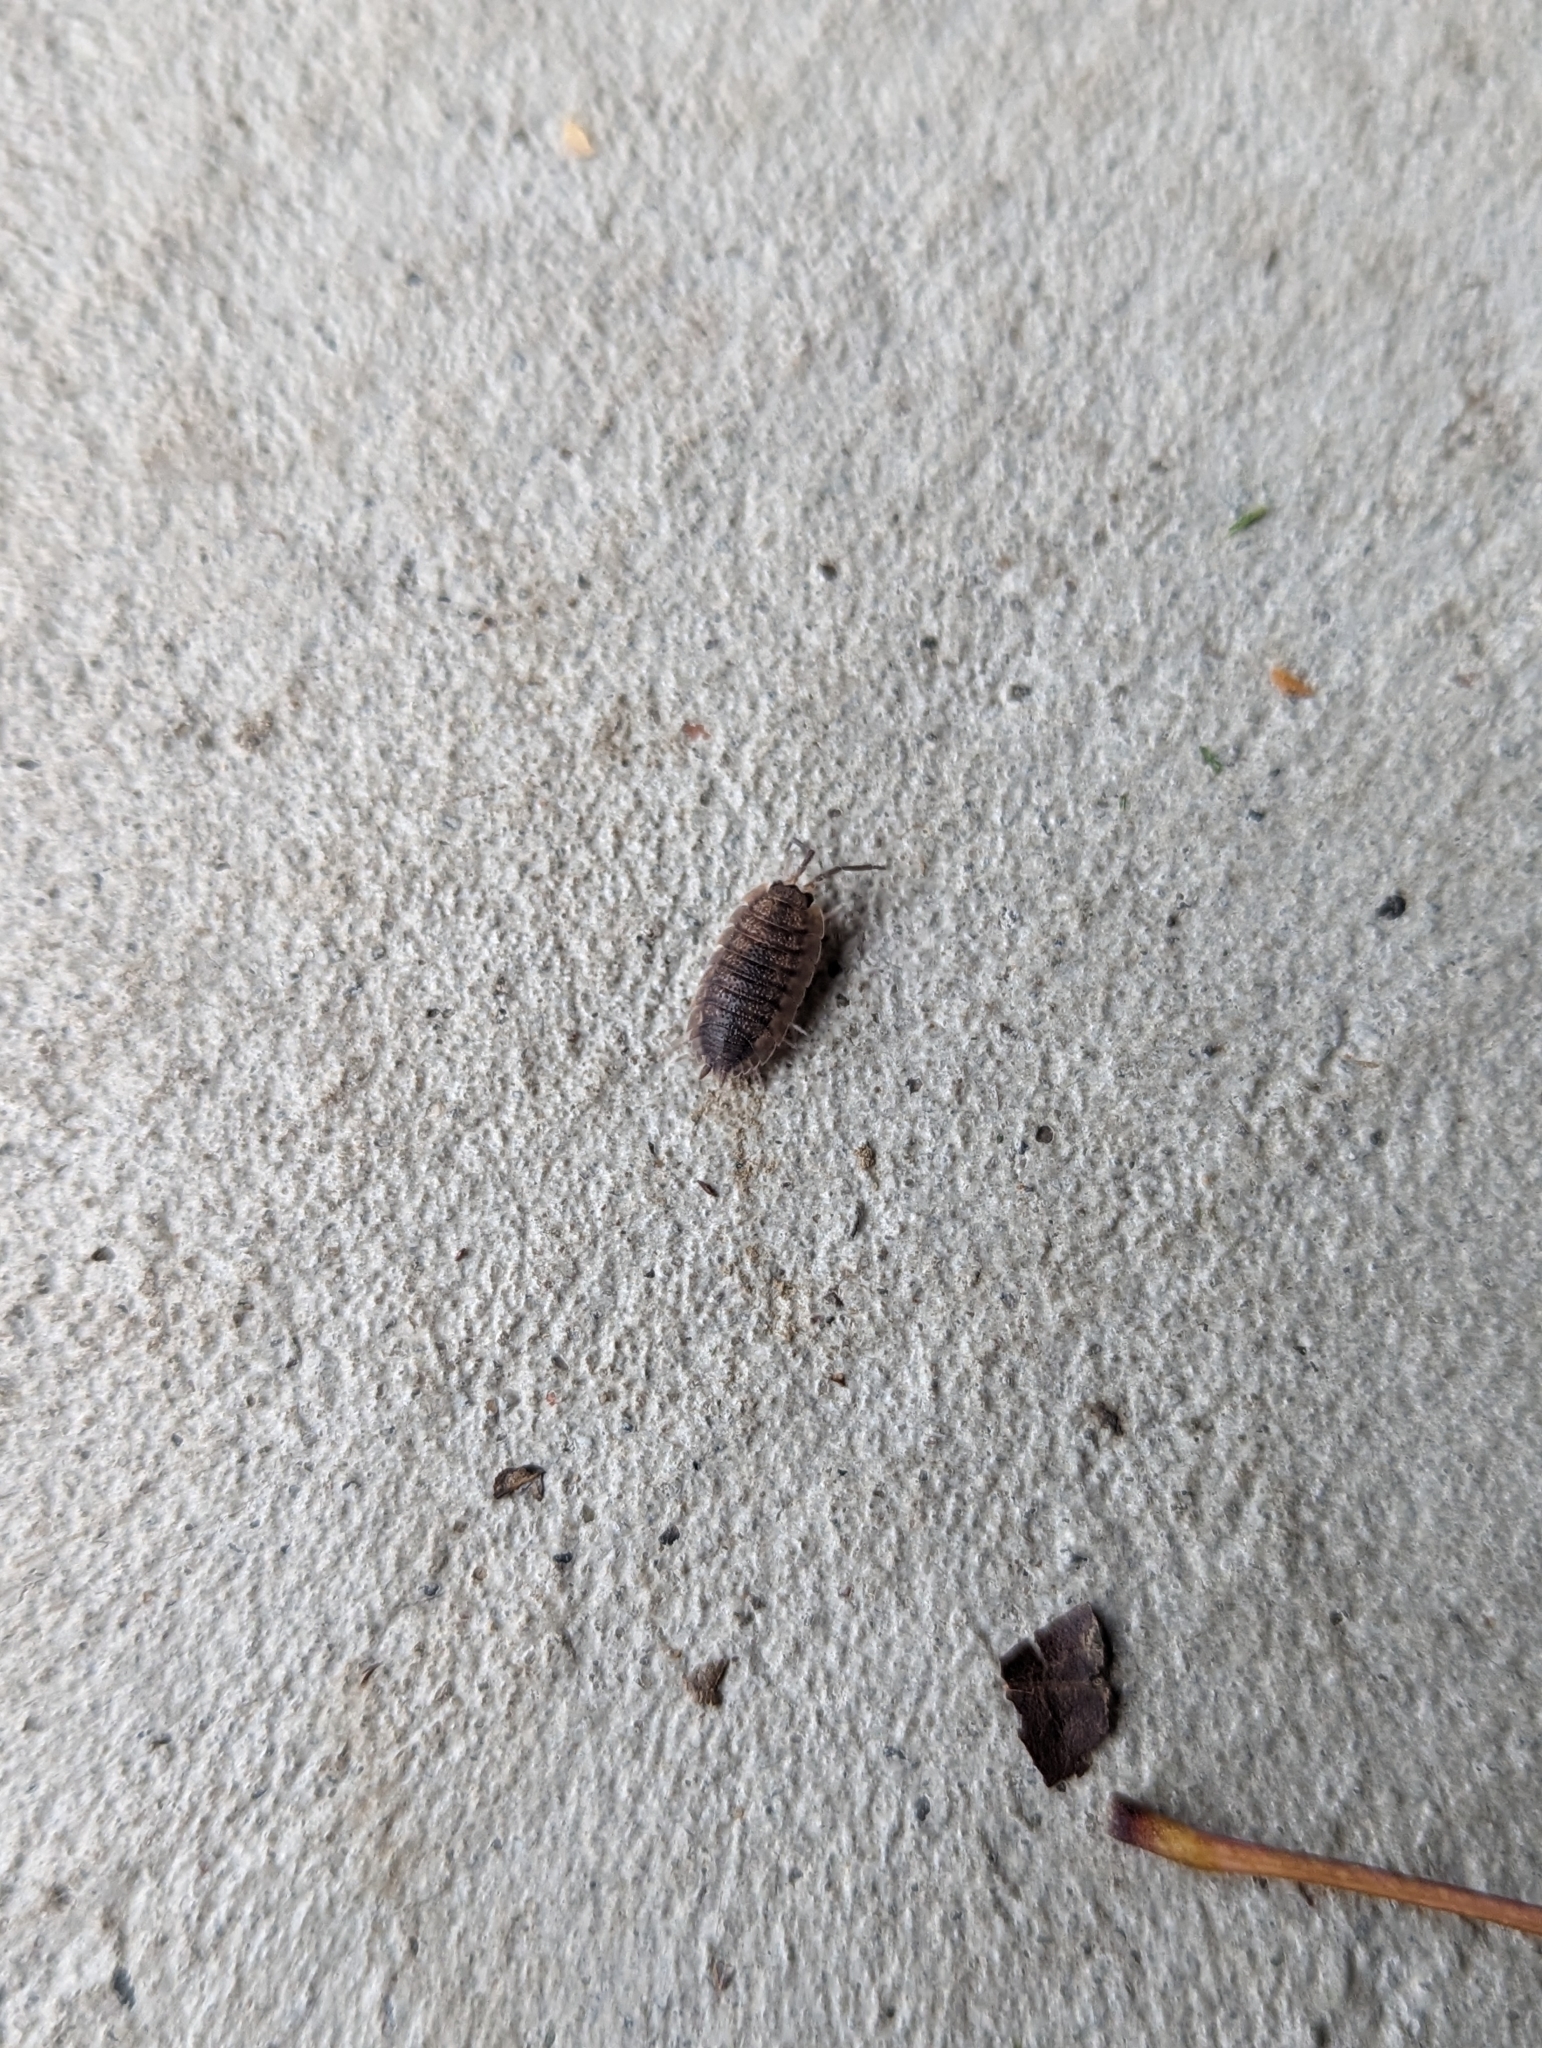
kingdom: Animalia
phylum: Arthropoda
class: Malacostraca
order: Isopoda
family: Porcellionidae
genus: Porcellio
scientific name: Porcellio scaber
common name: Common rough woodlouse
